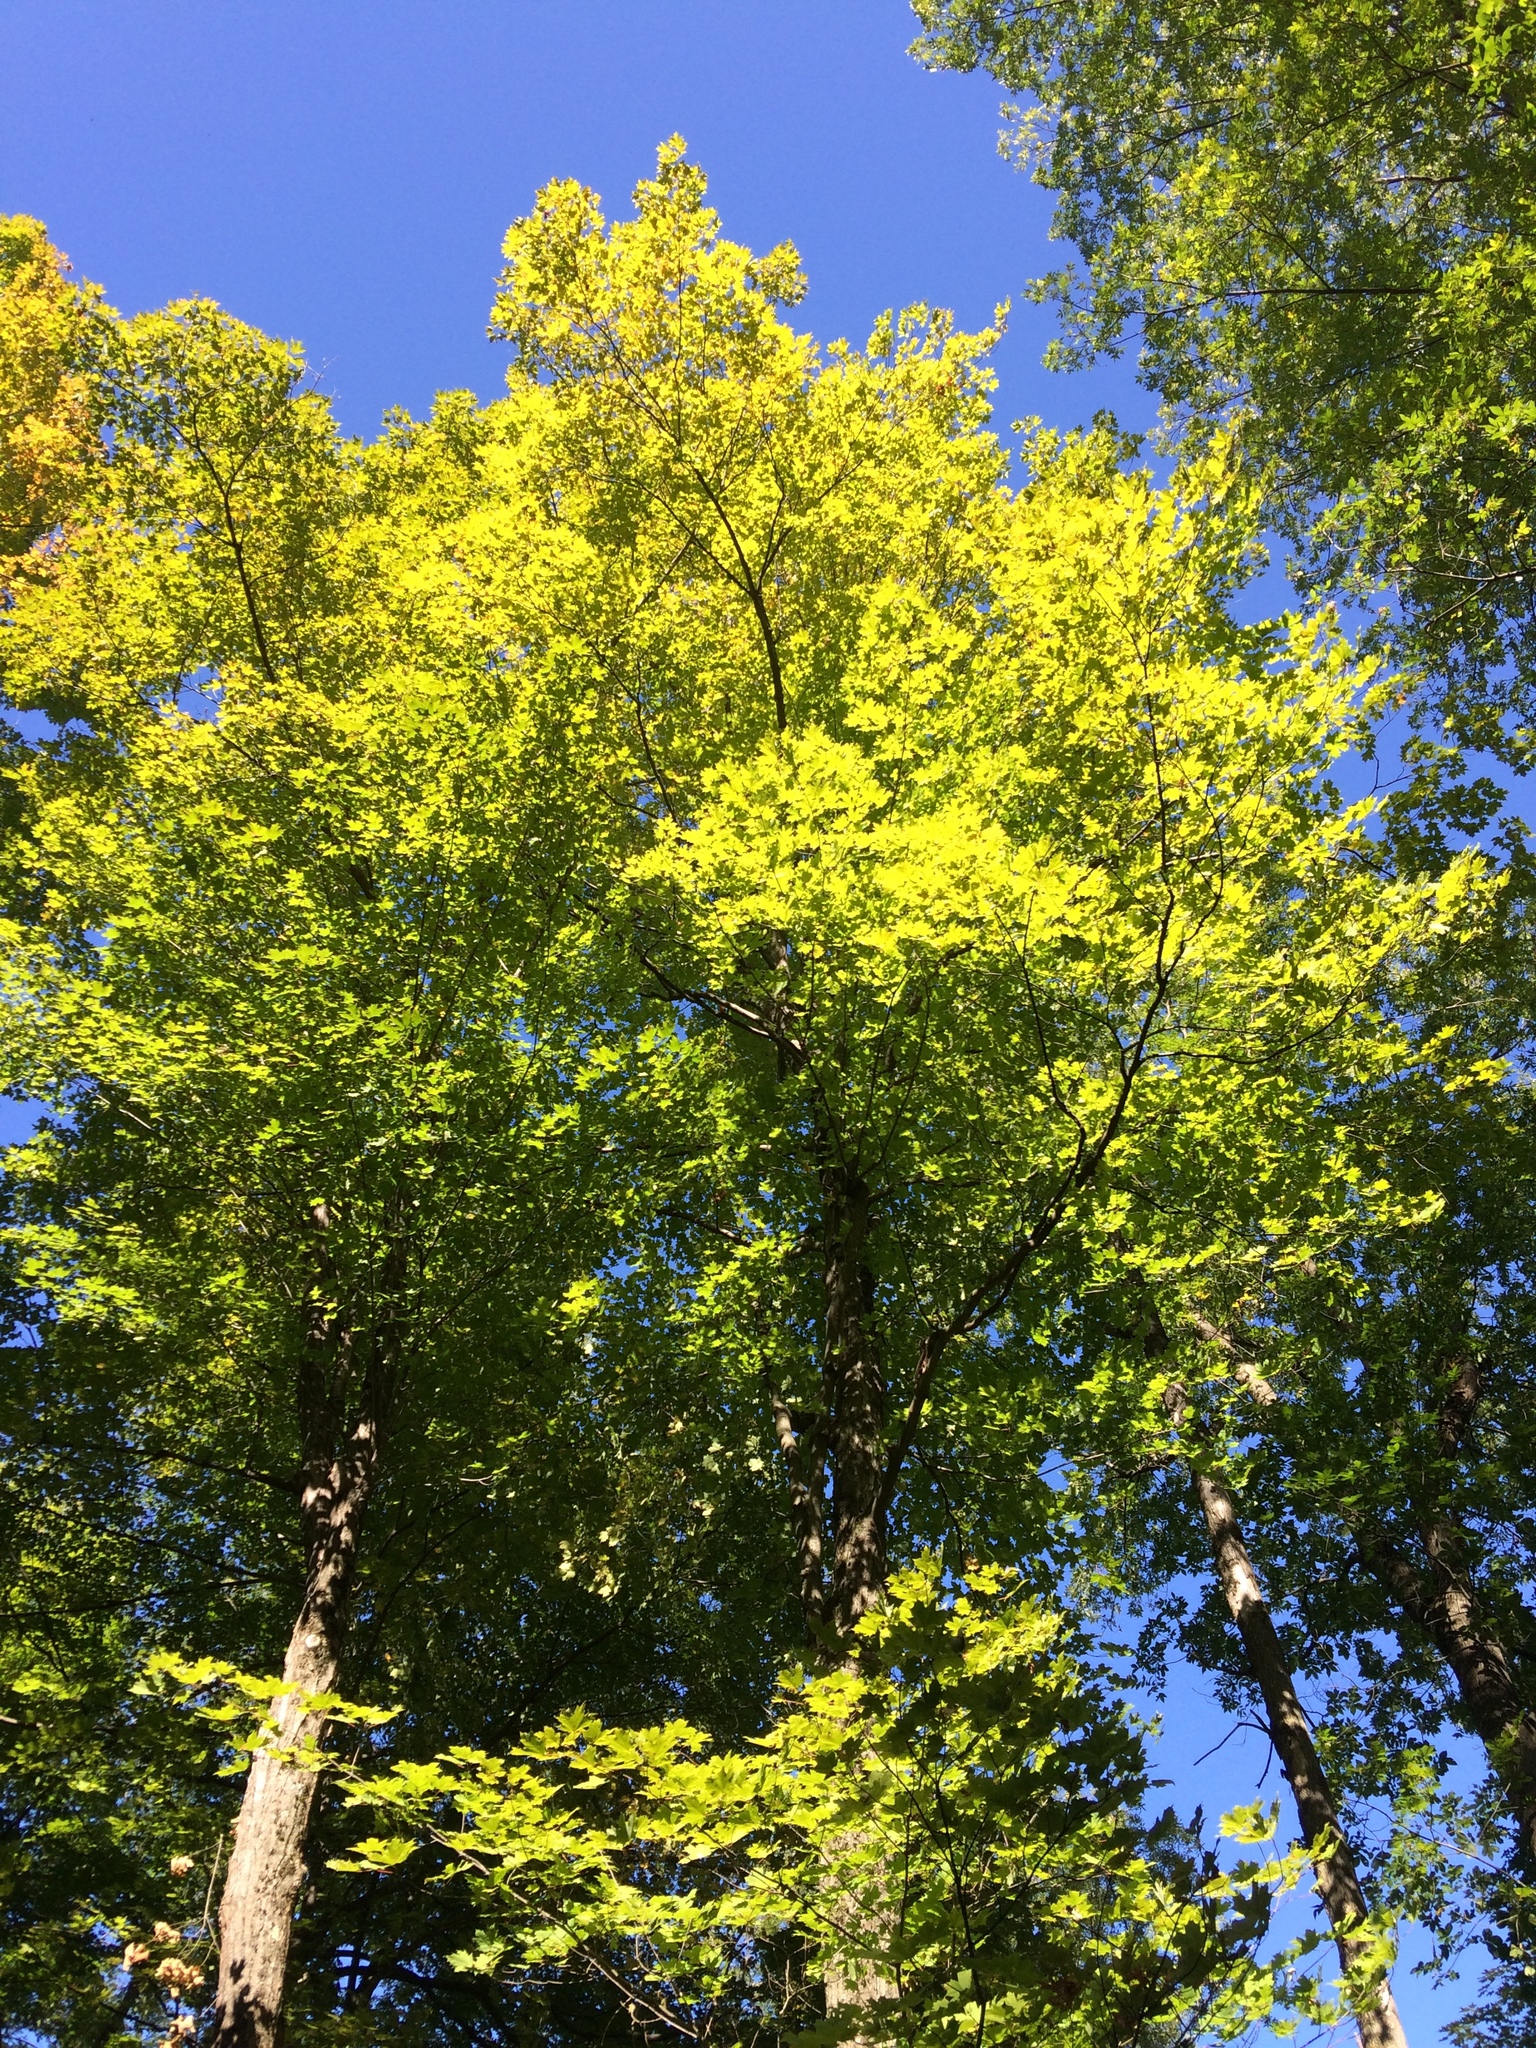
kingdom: Plantae
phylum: Tracheophyta
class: Magnoliopsida
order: Sapindales
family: Sapindaceae
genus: Acer
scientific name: Acer saccharum
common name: Sugar maple
